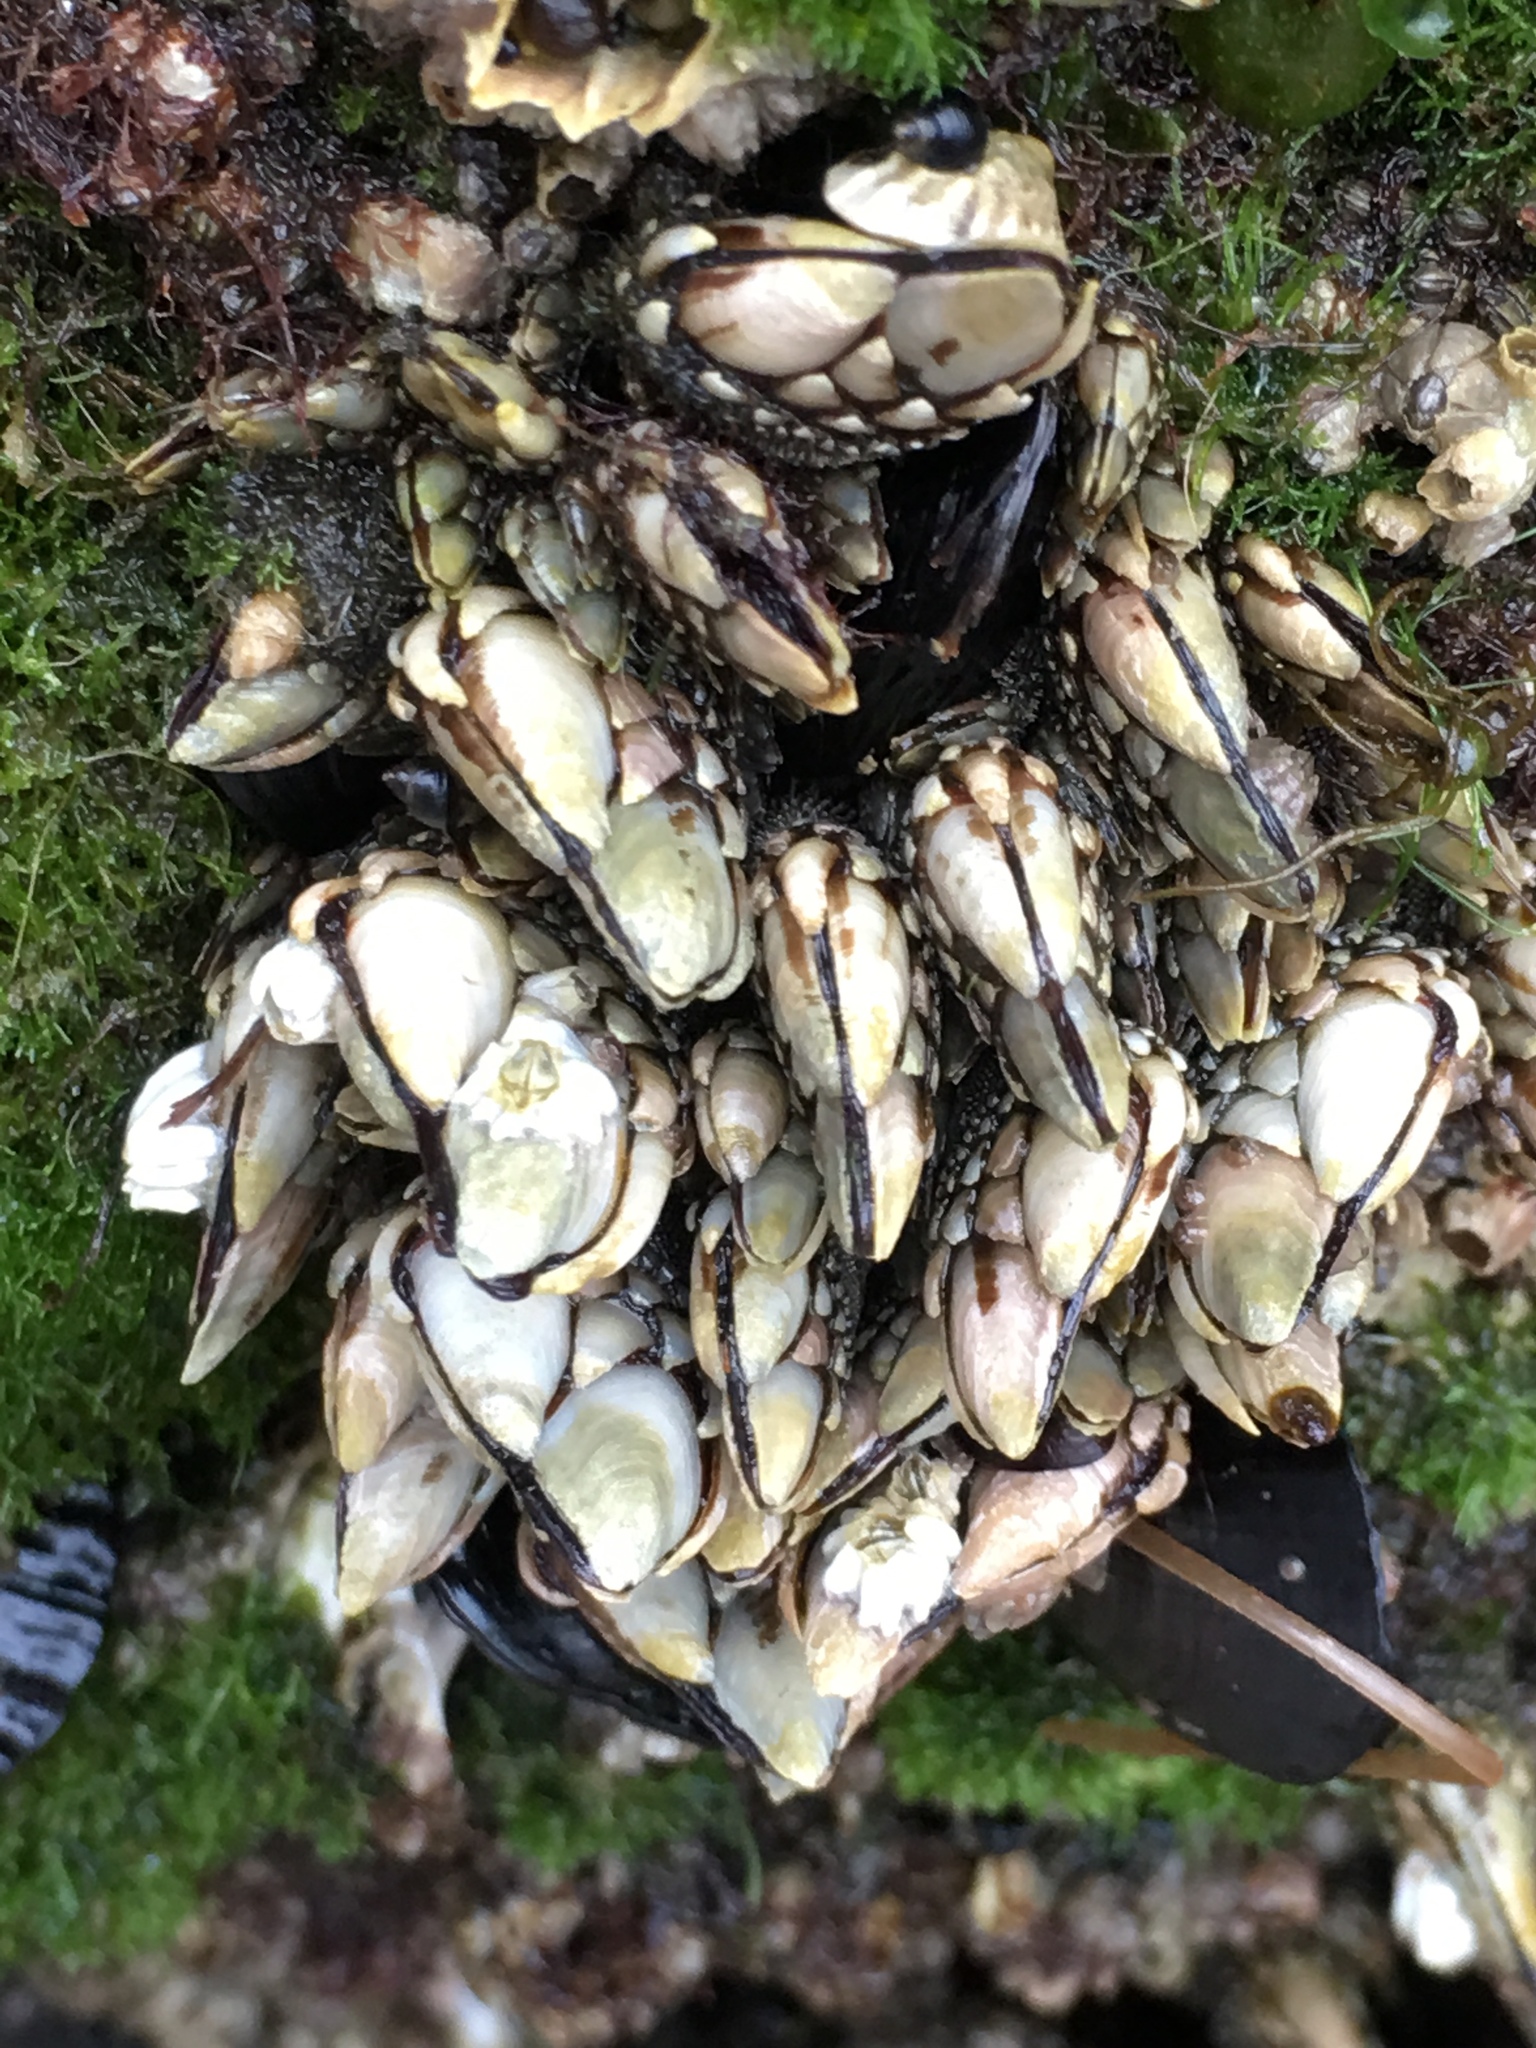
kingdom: Animalia
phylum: Arthropoda
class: Maxillopoda
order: Pedunculata
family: Pollicipedidae
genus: Pollicipes
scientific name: Pollicipes polymerus
